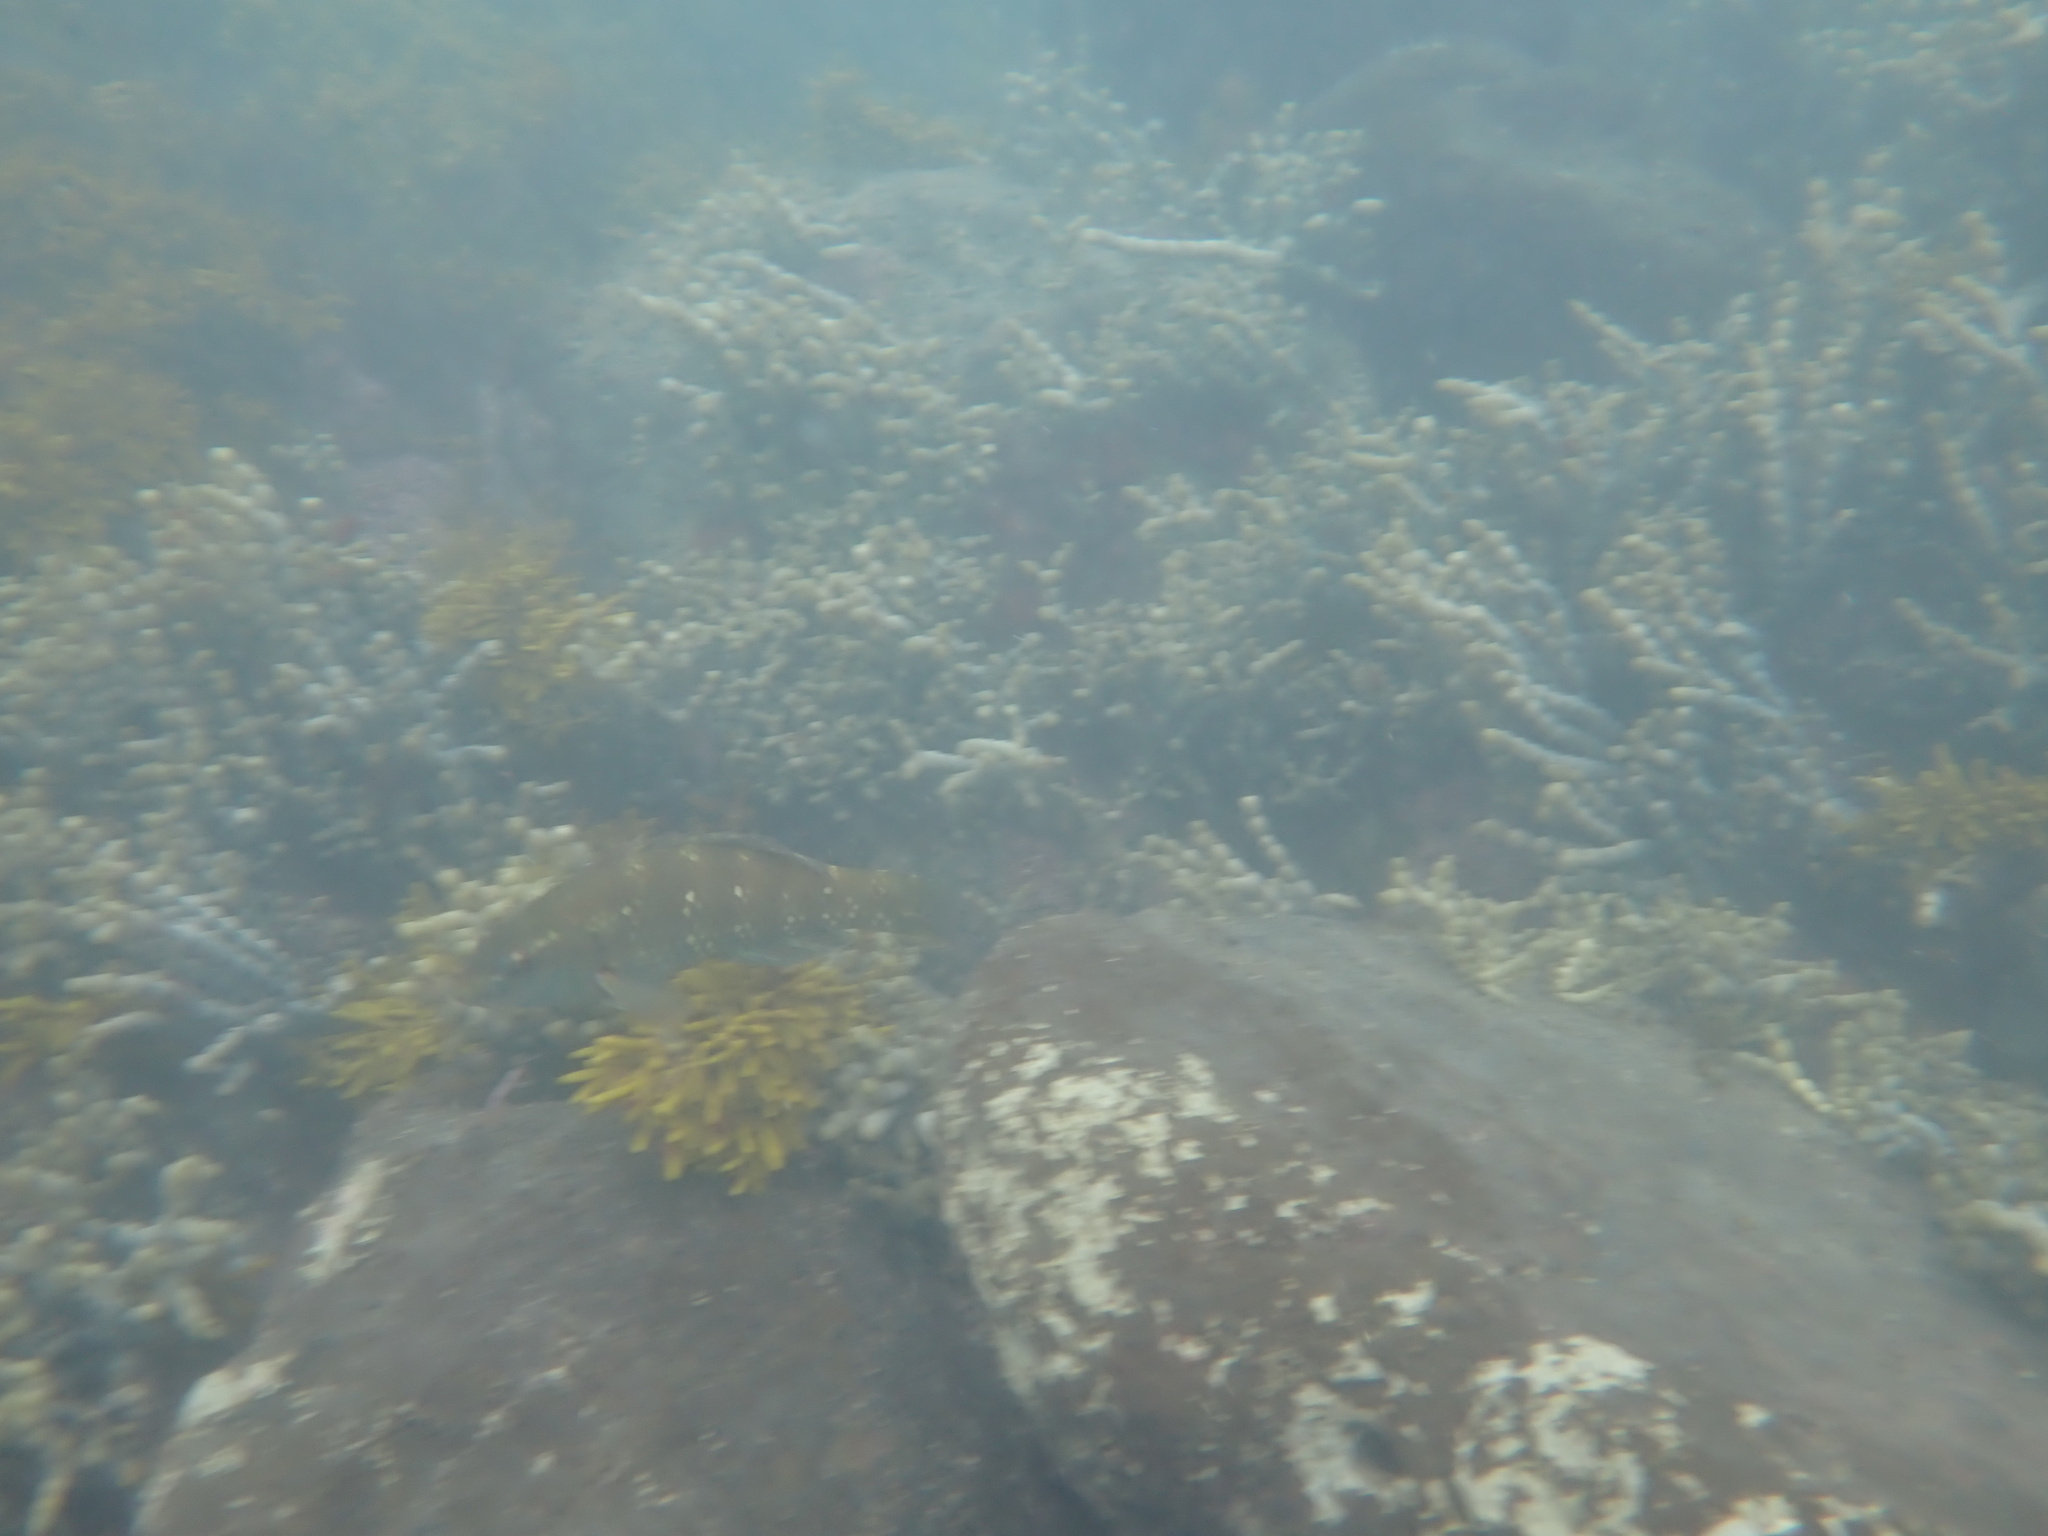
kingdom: Animalia
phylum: Chordata
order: Perciformes
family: Labridae
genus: Notolabrus
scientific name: Notolabrus fucicola
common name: Banded parrotfish
